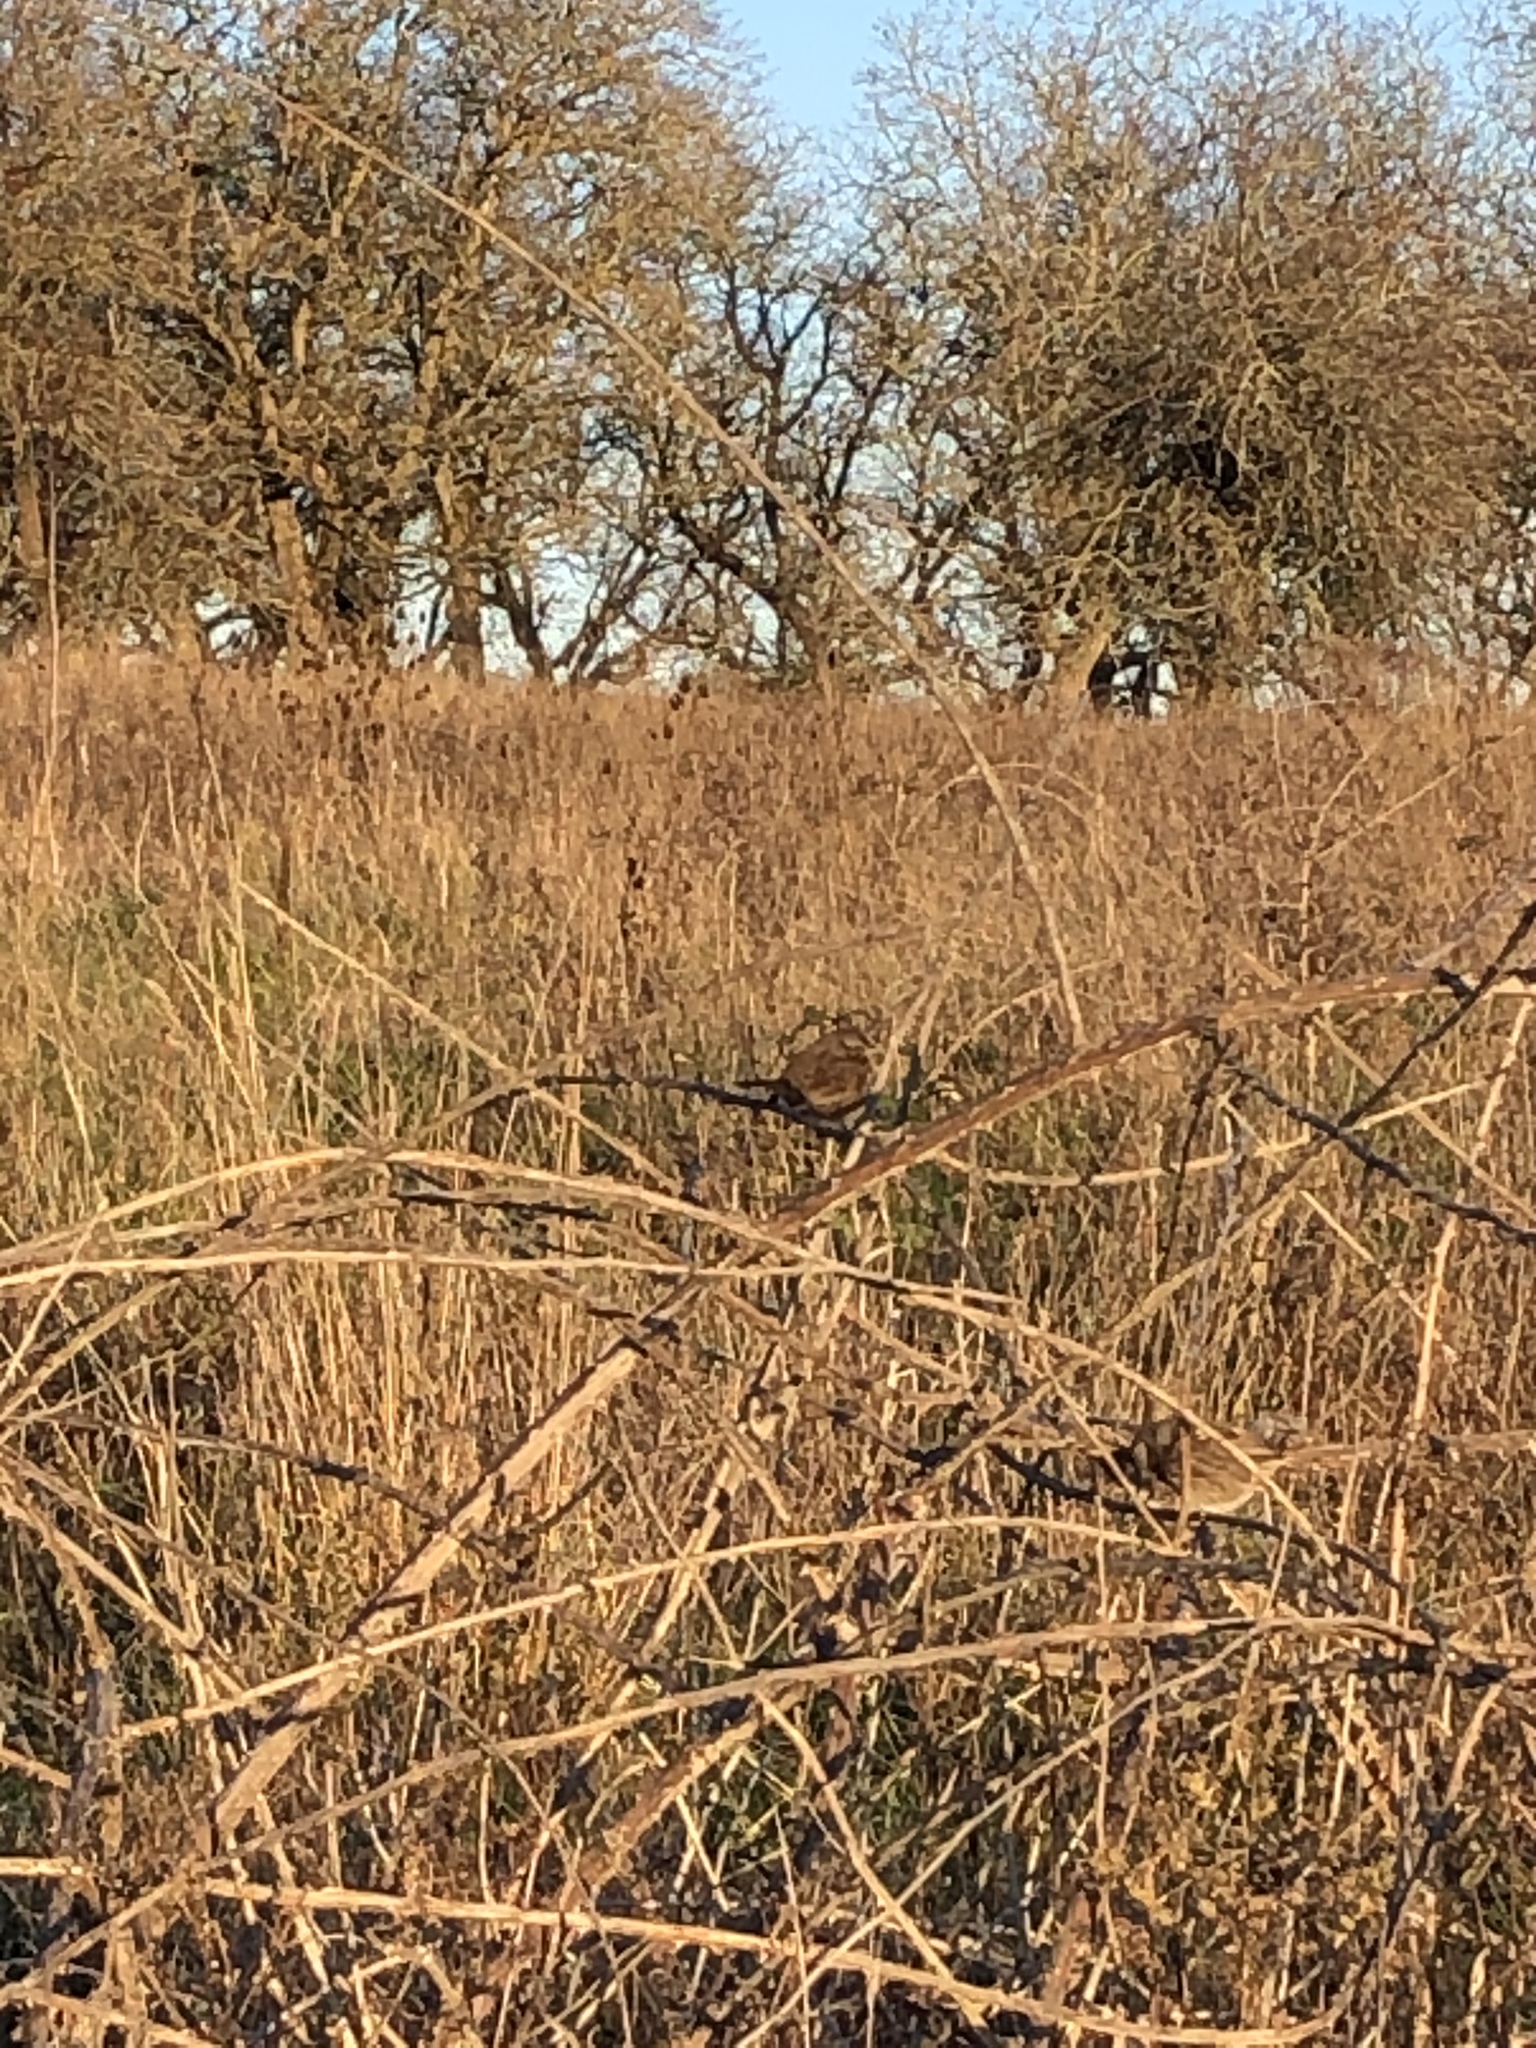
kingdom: Animalia
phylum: Chordata
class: Aves
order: Passeriformes
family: Passerellidae
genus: Melospiza
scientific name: Melospiza melodia
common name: Song sparrow
